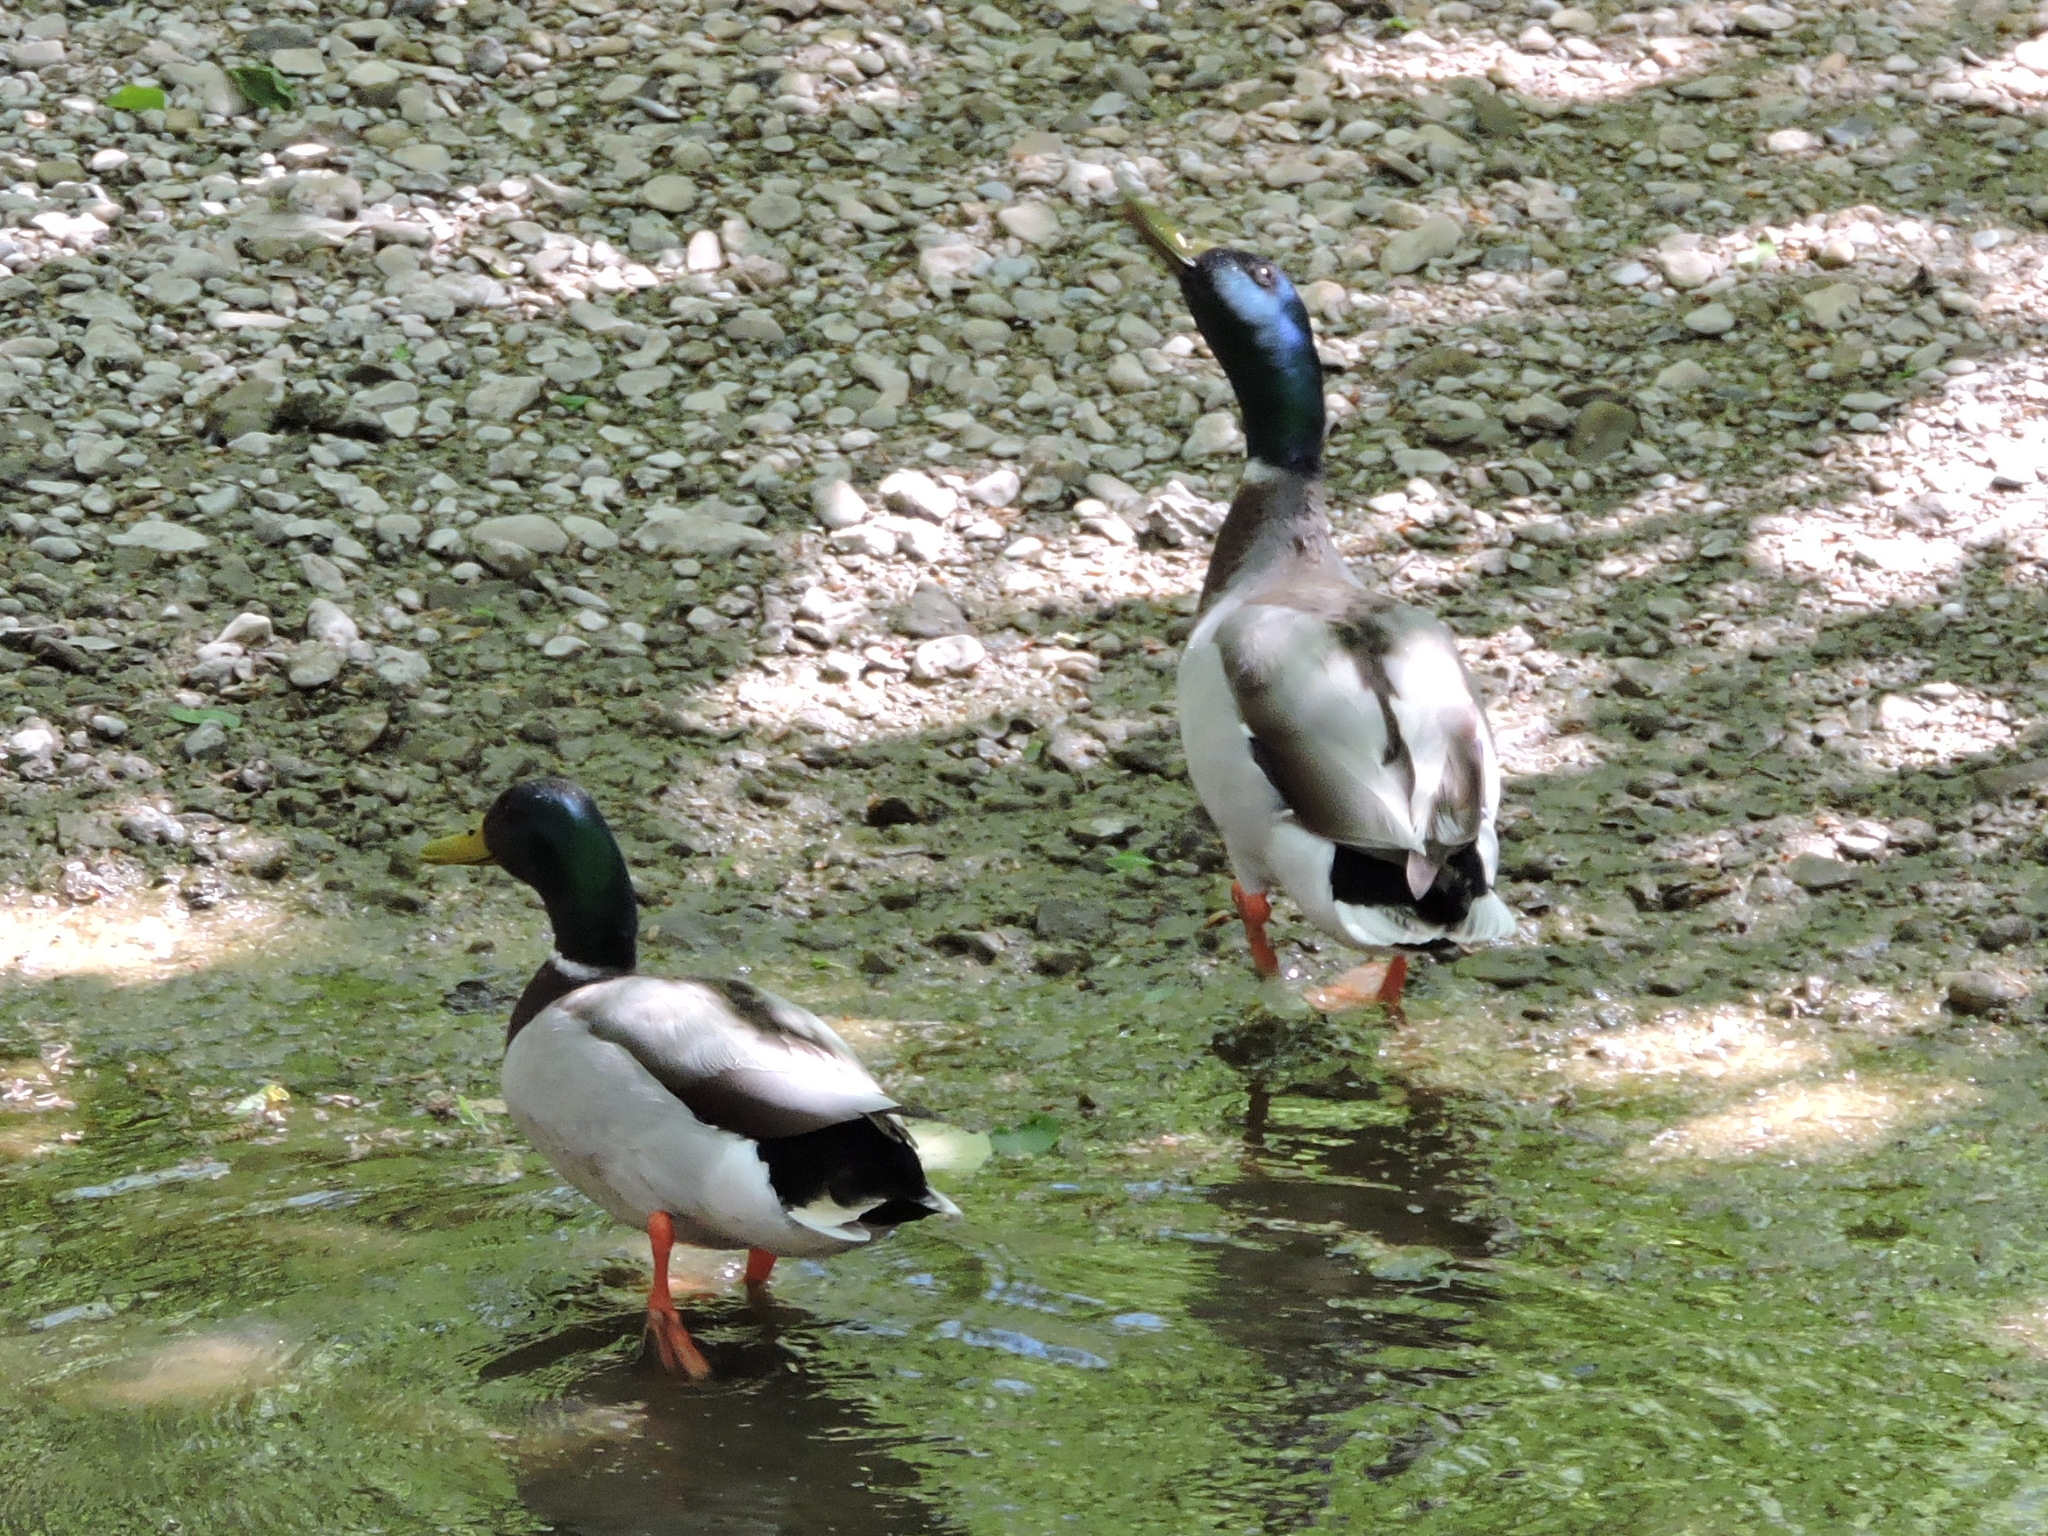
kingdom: Animalia
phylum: Chordata
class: Aves
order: Anseriformes
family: Anatidae
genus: Anas
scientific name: Anas platyrhynchos
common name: Mallard
